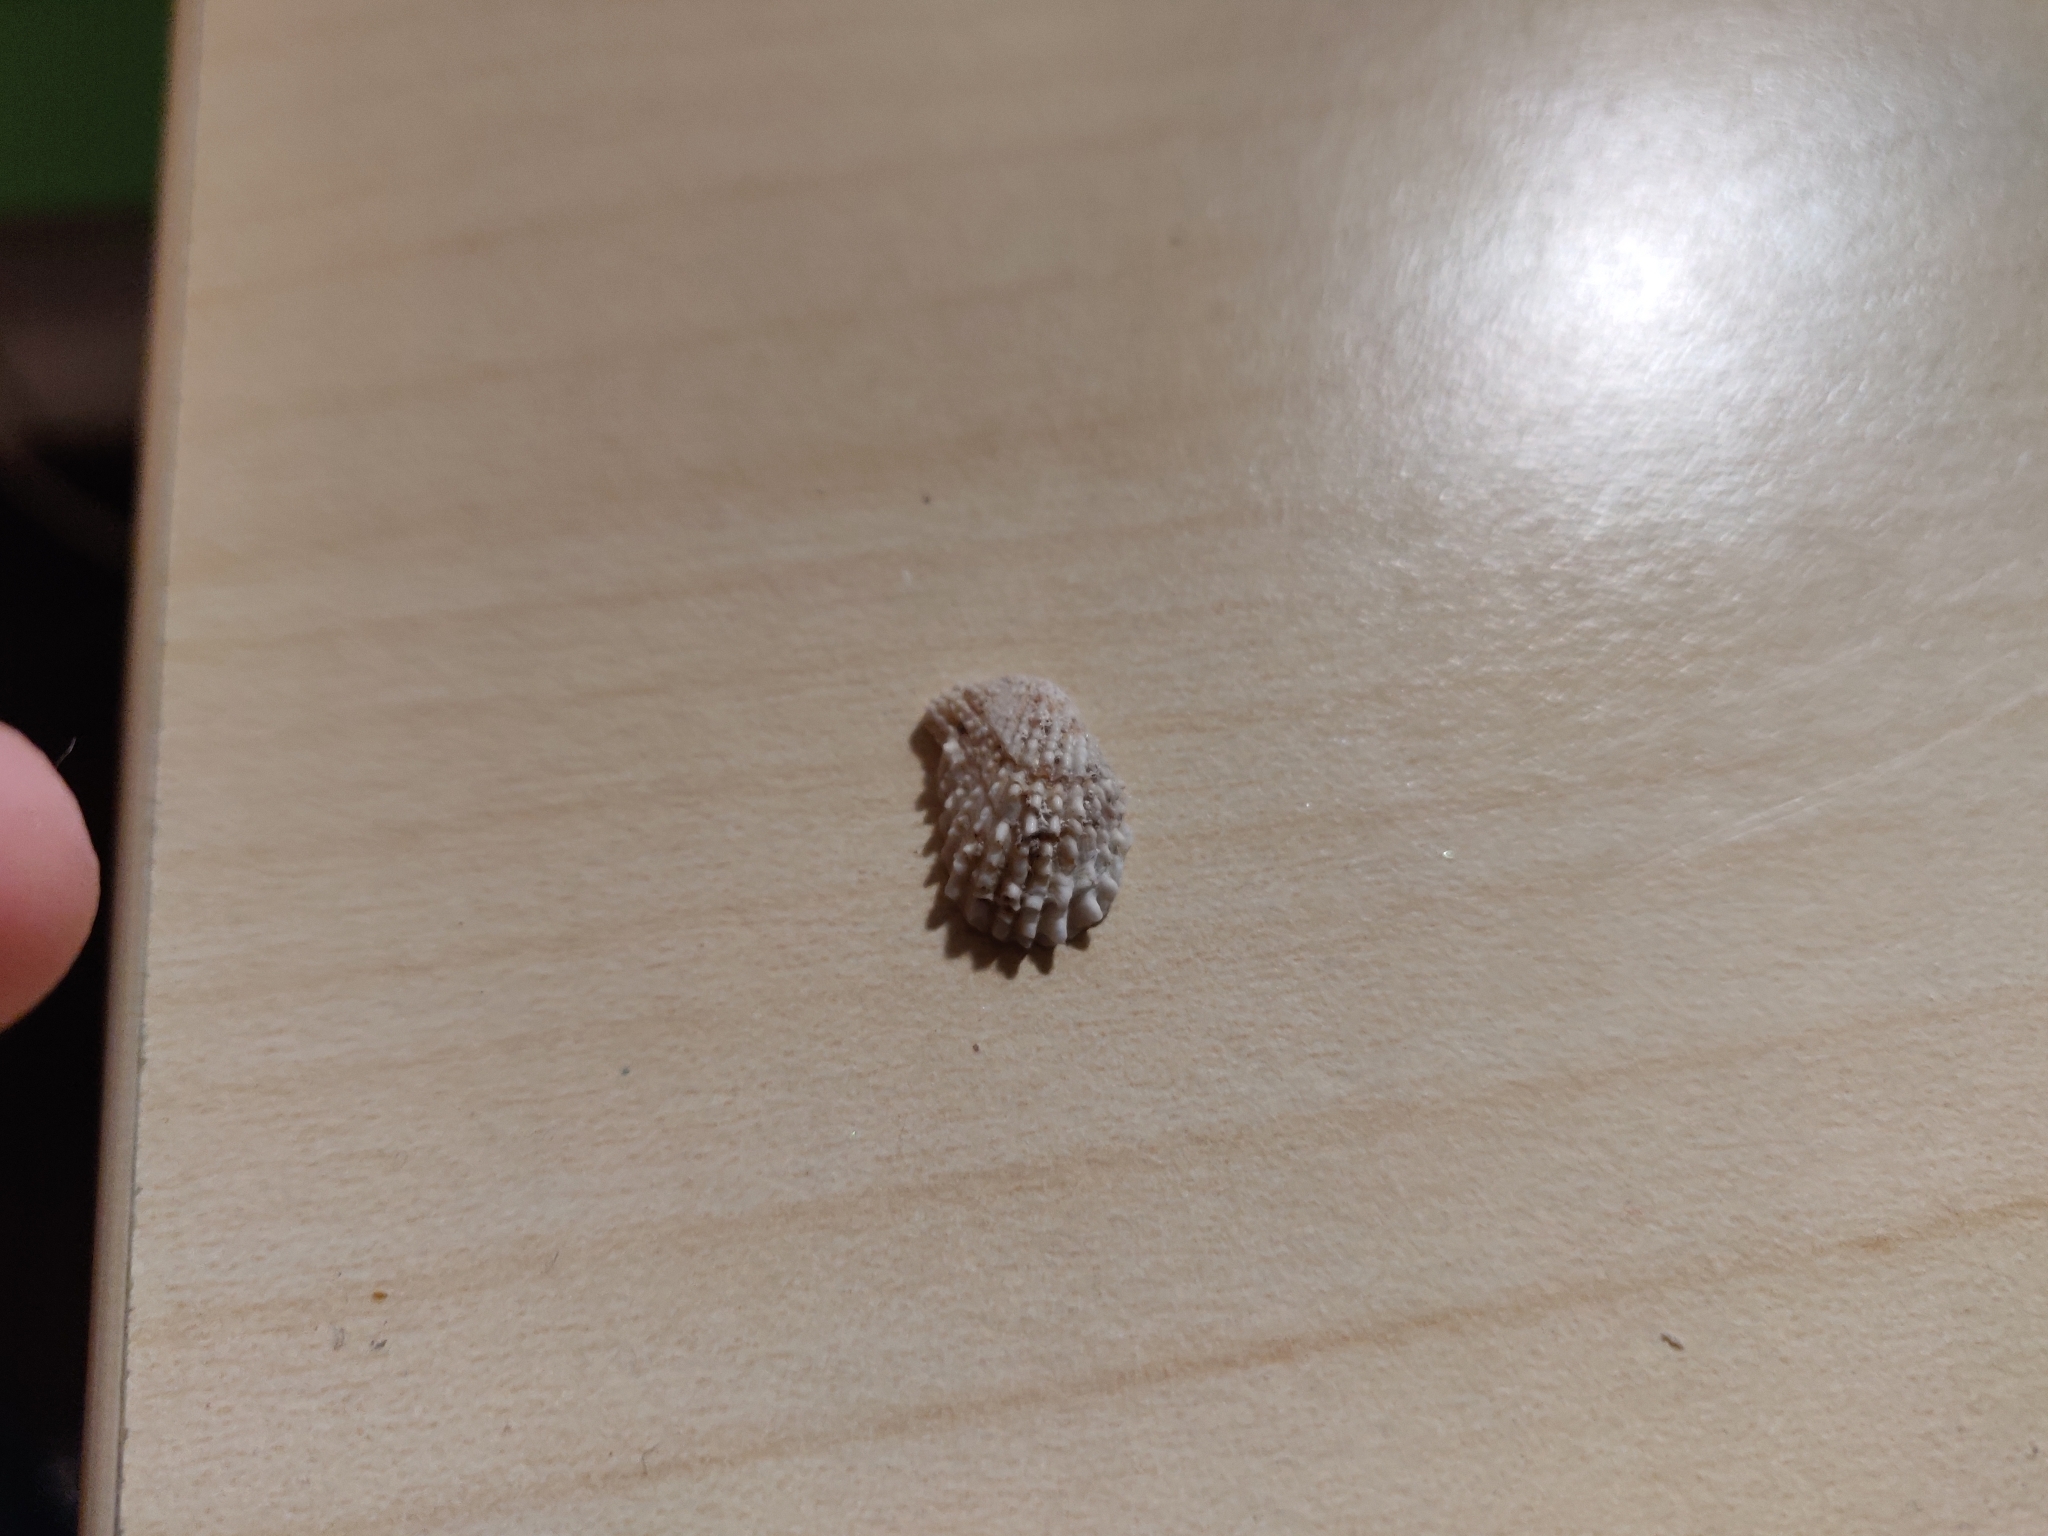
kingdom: Animalia
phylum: Mollusca
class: Bivalvia
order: Carditida
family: Carditidae
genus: Cardita
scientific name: Cardita calyculata
